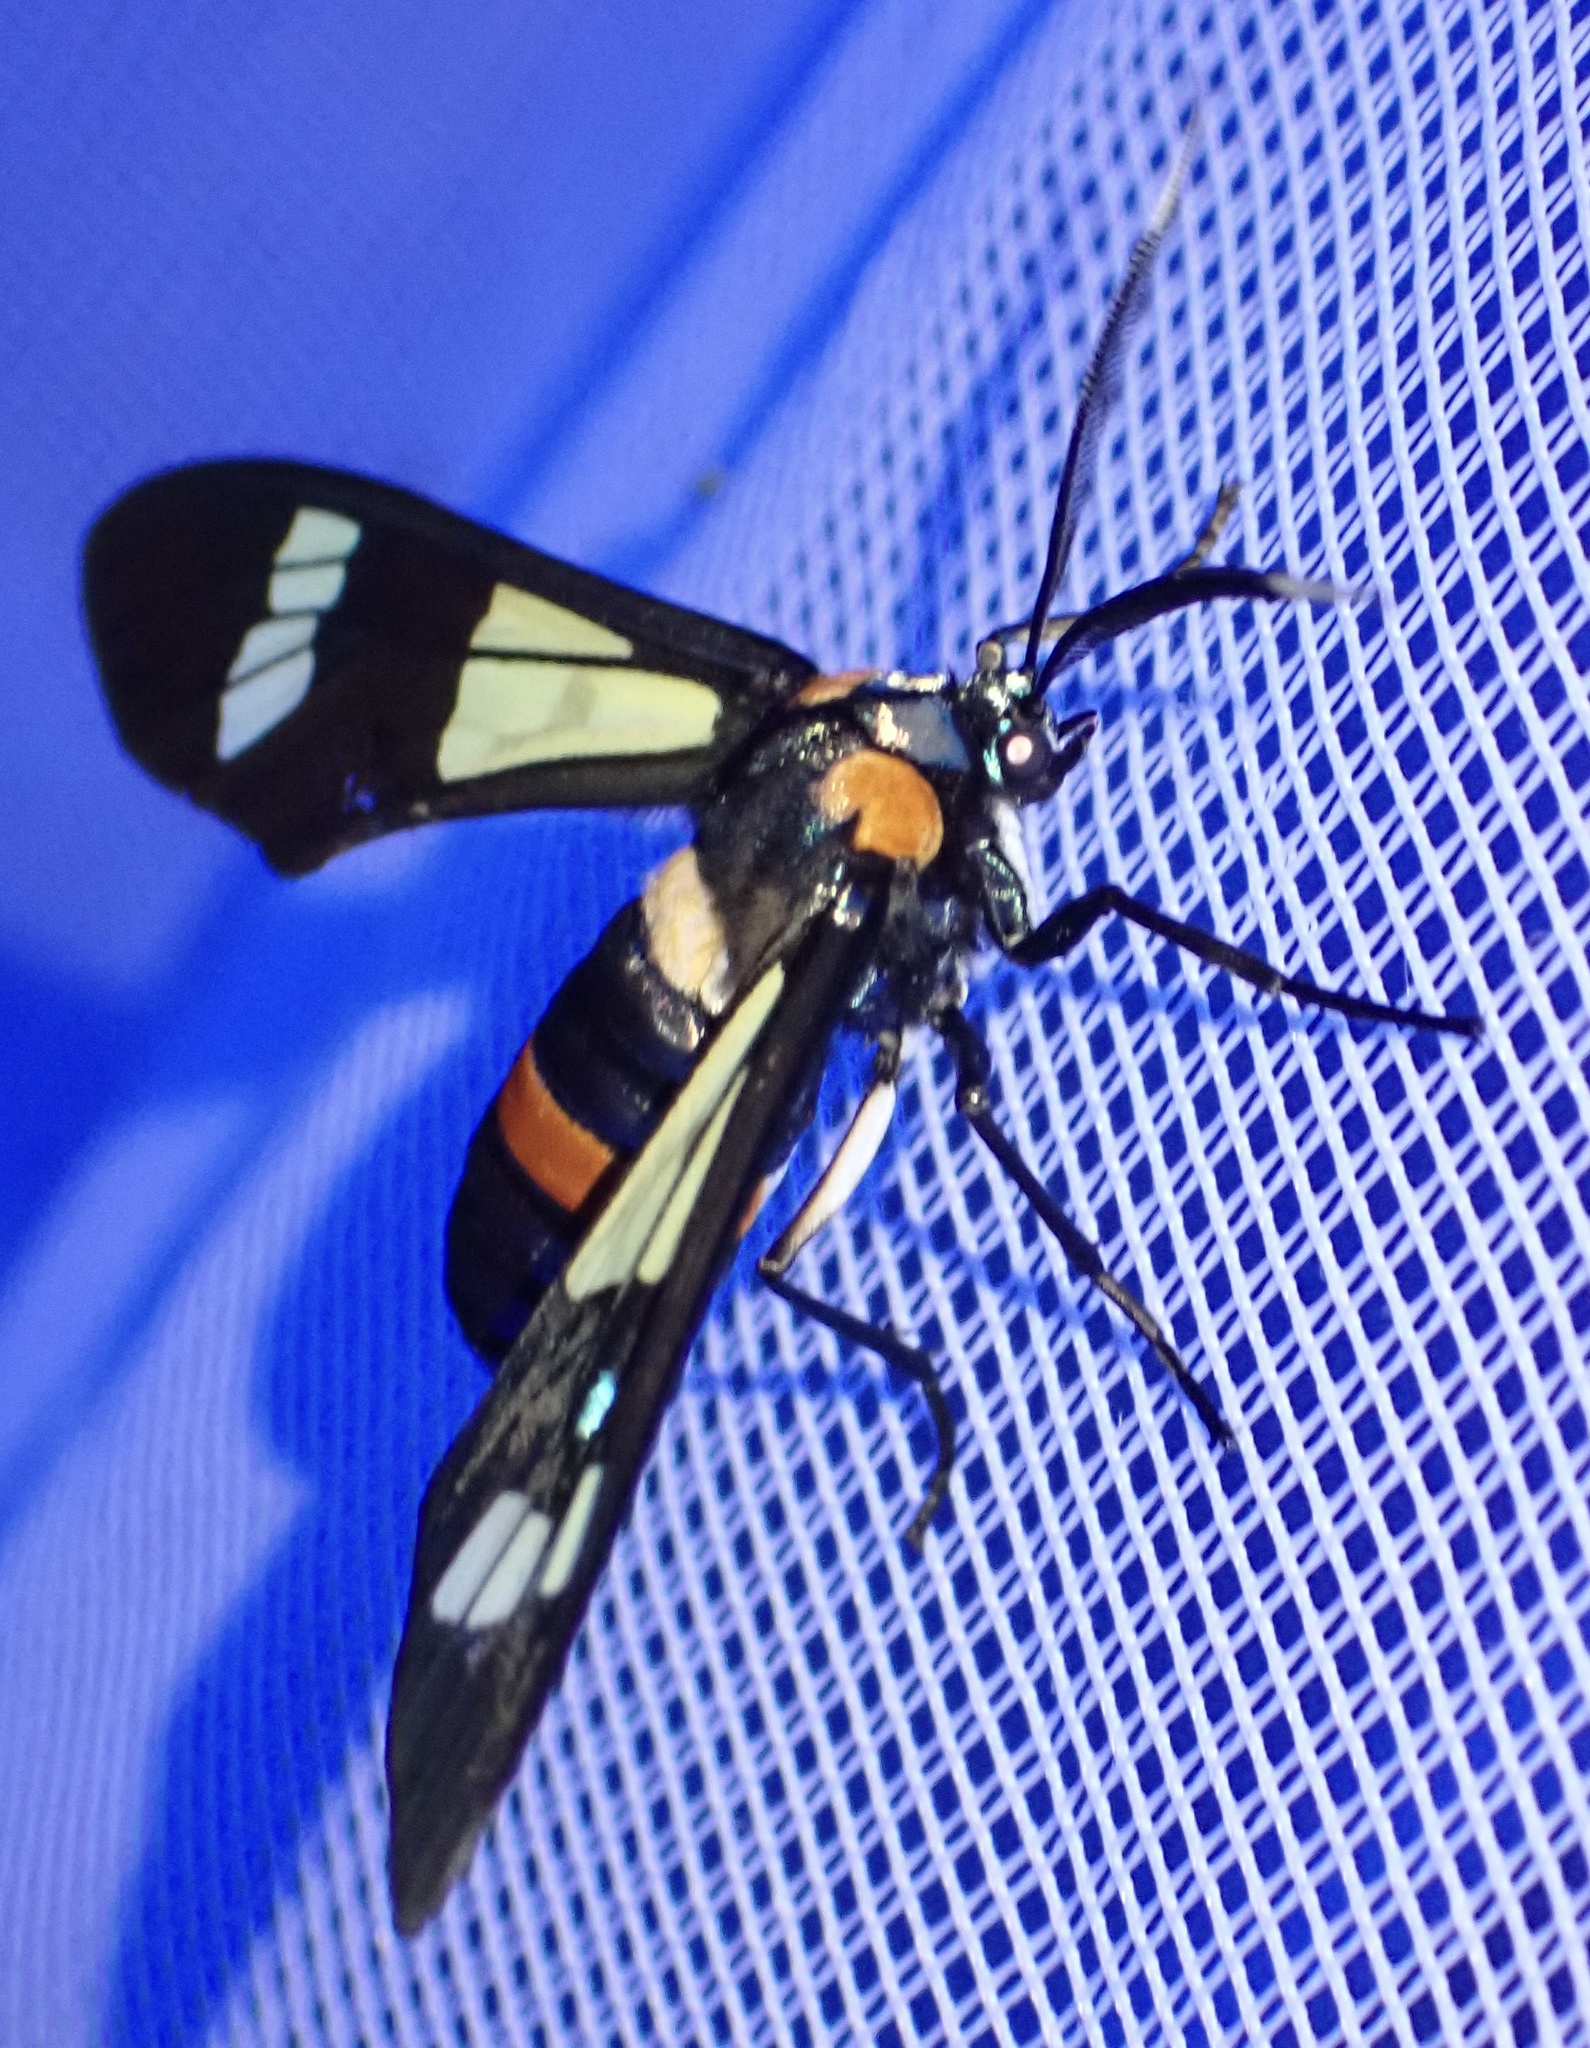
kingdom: Animalia
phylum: Arthropoda
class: Insecta
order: Lepidoptera
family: Erebidae
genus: Euchromia
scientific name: Euchromia folletii
